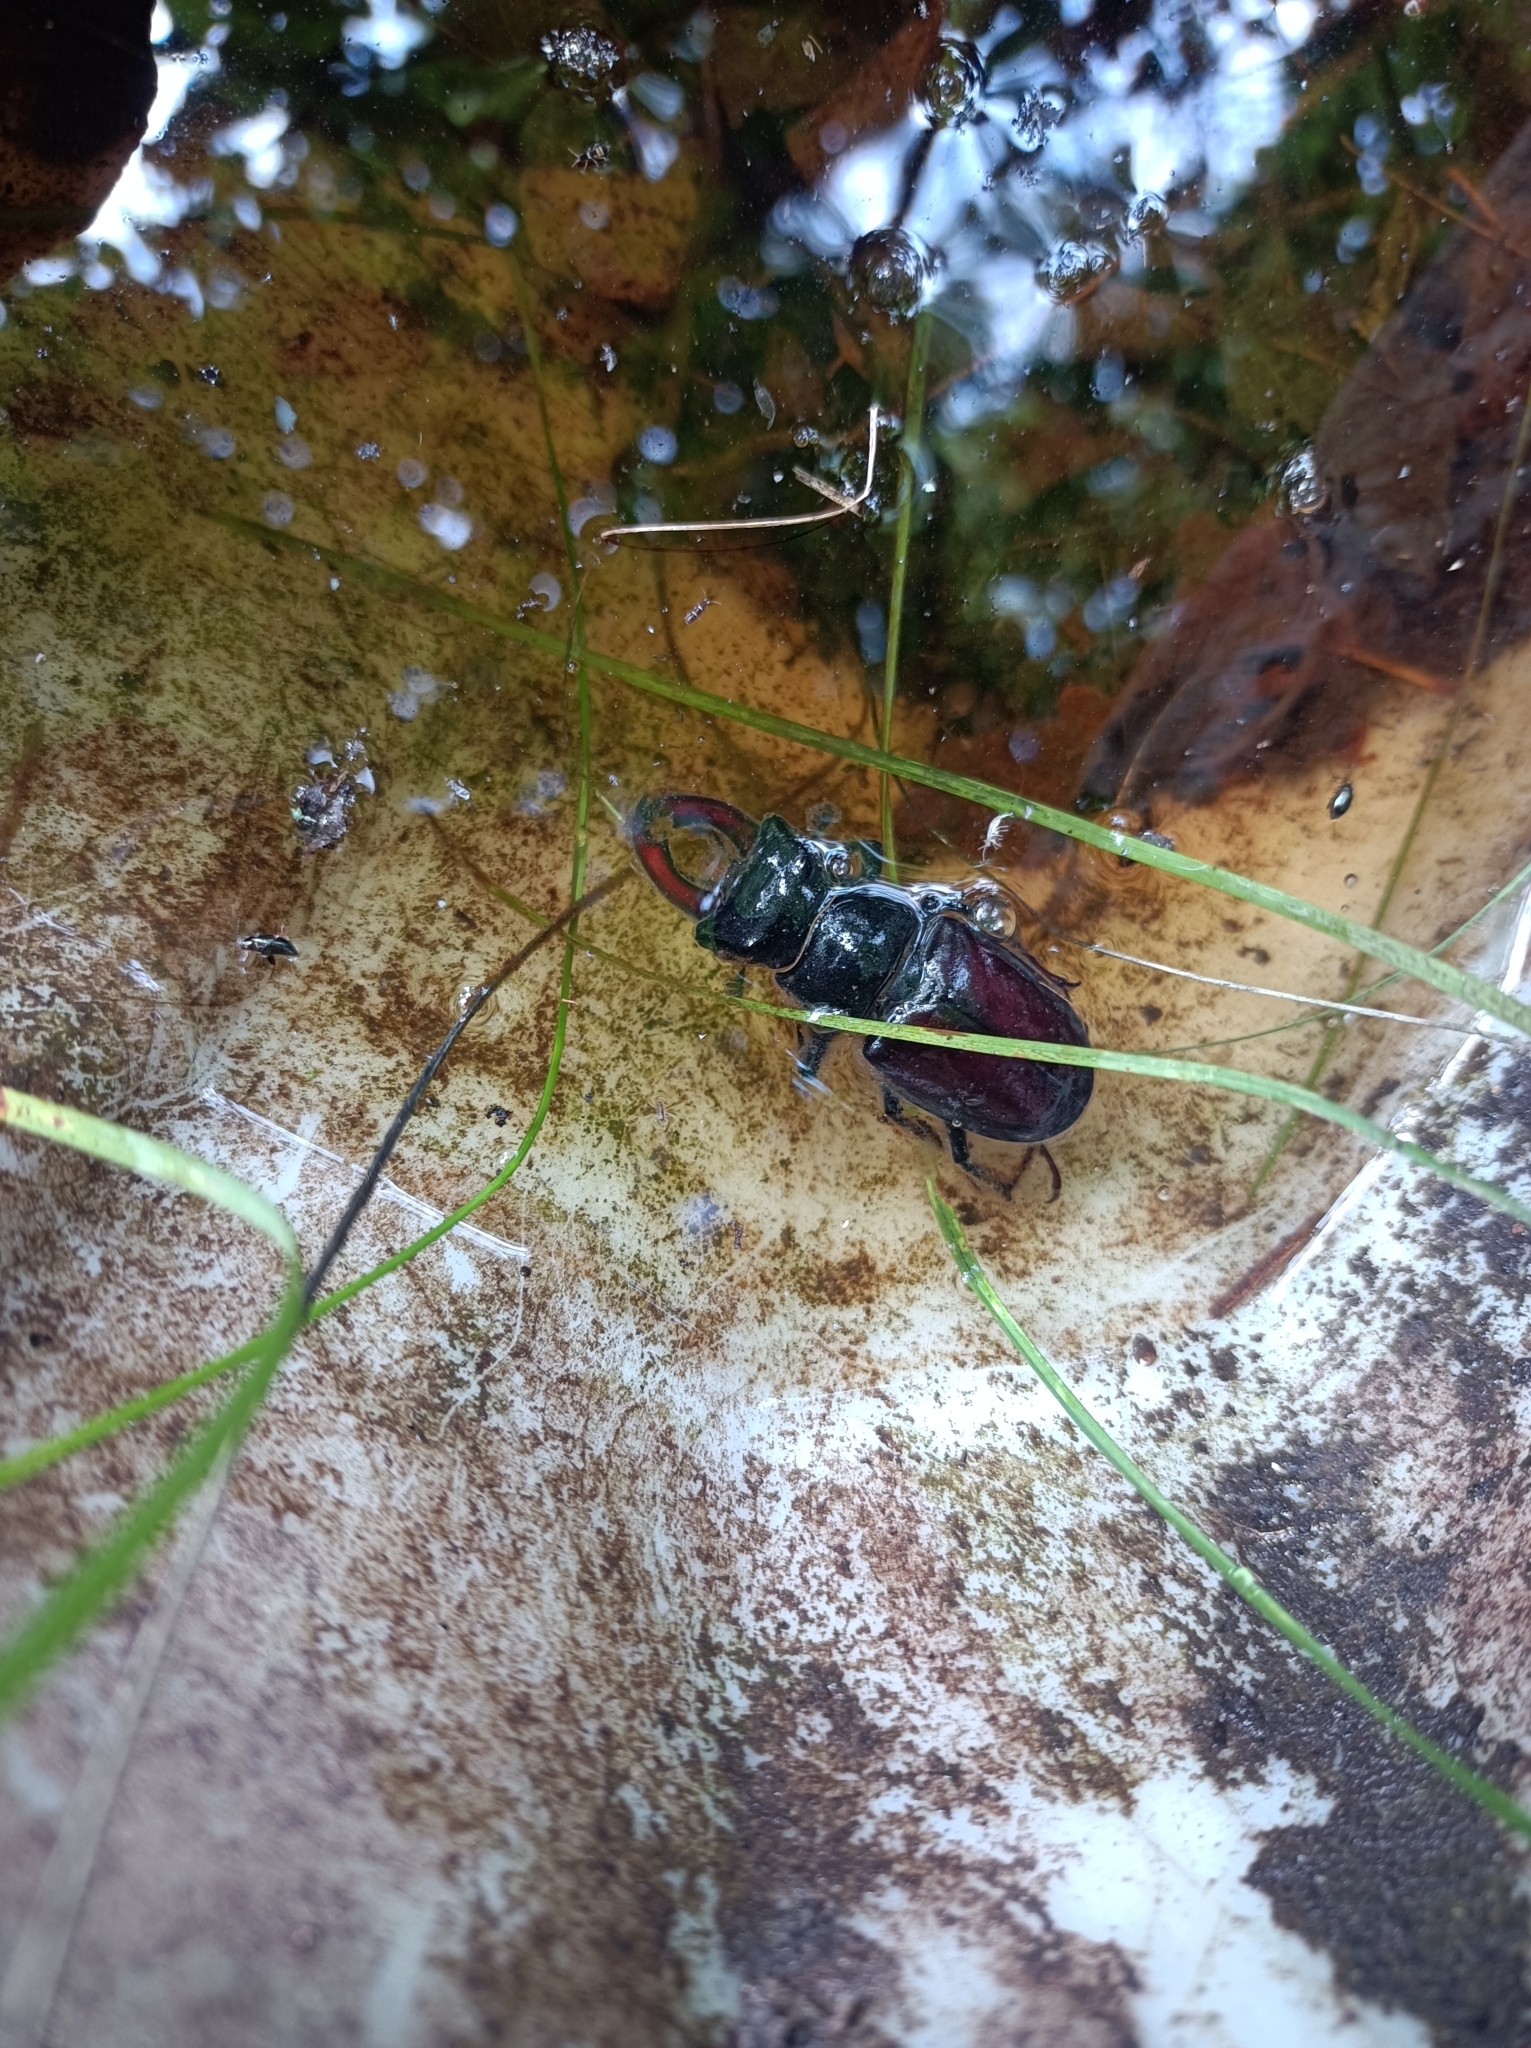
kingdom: Animalia
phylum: Arthropoda
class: Insecta
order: Coleoptera
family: Lucanidae
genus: Lucanus
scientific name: Lucanus cervus
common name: Stag beetle
